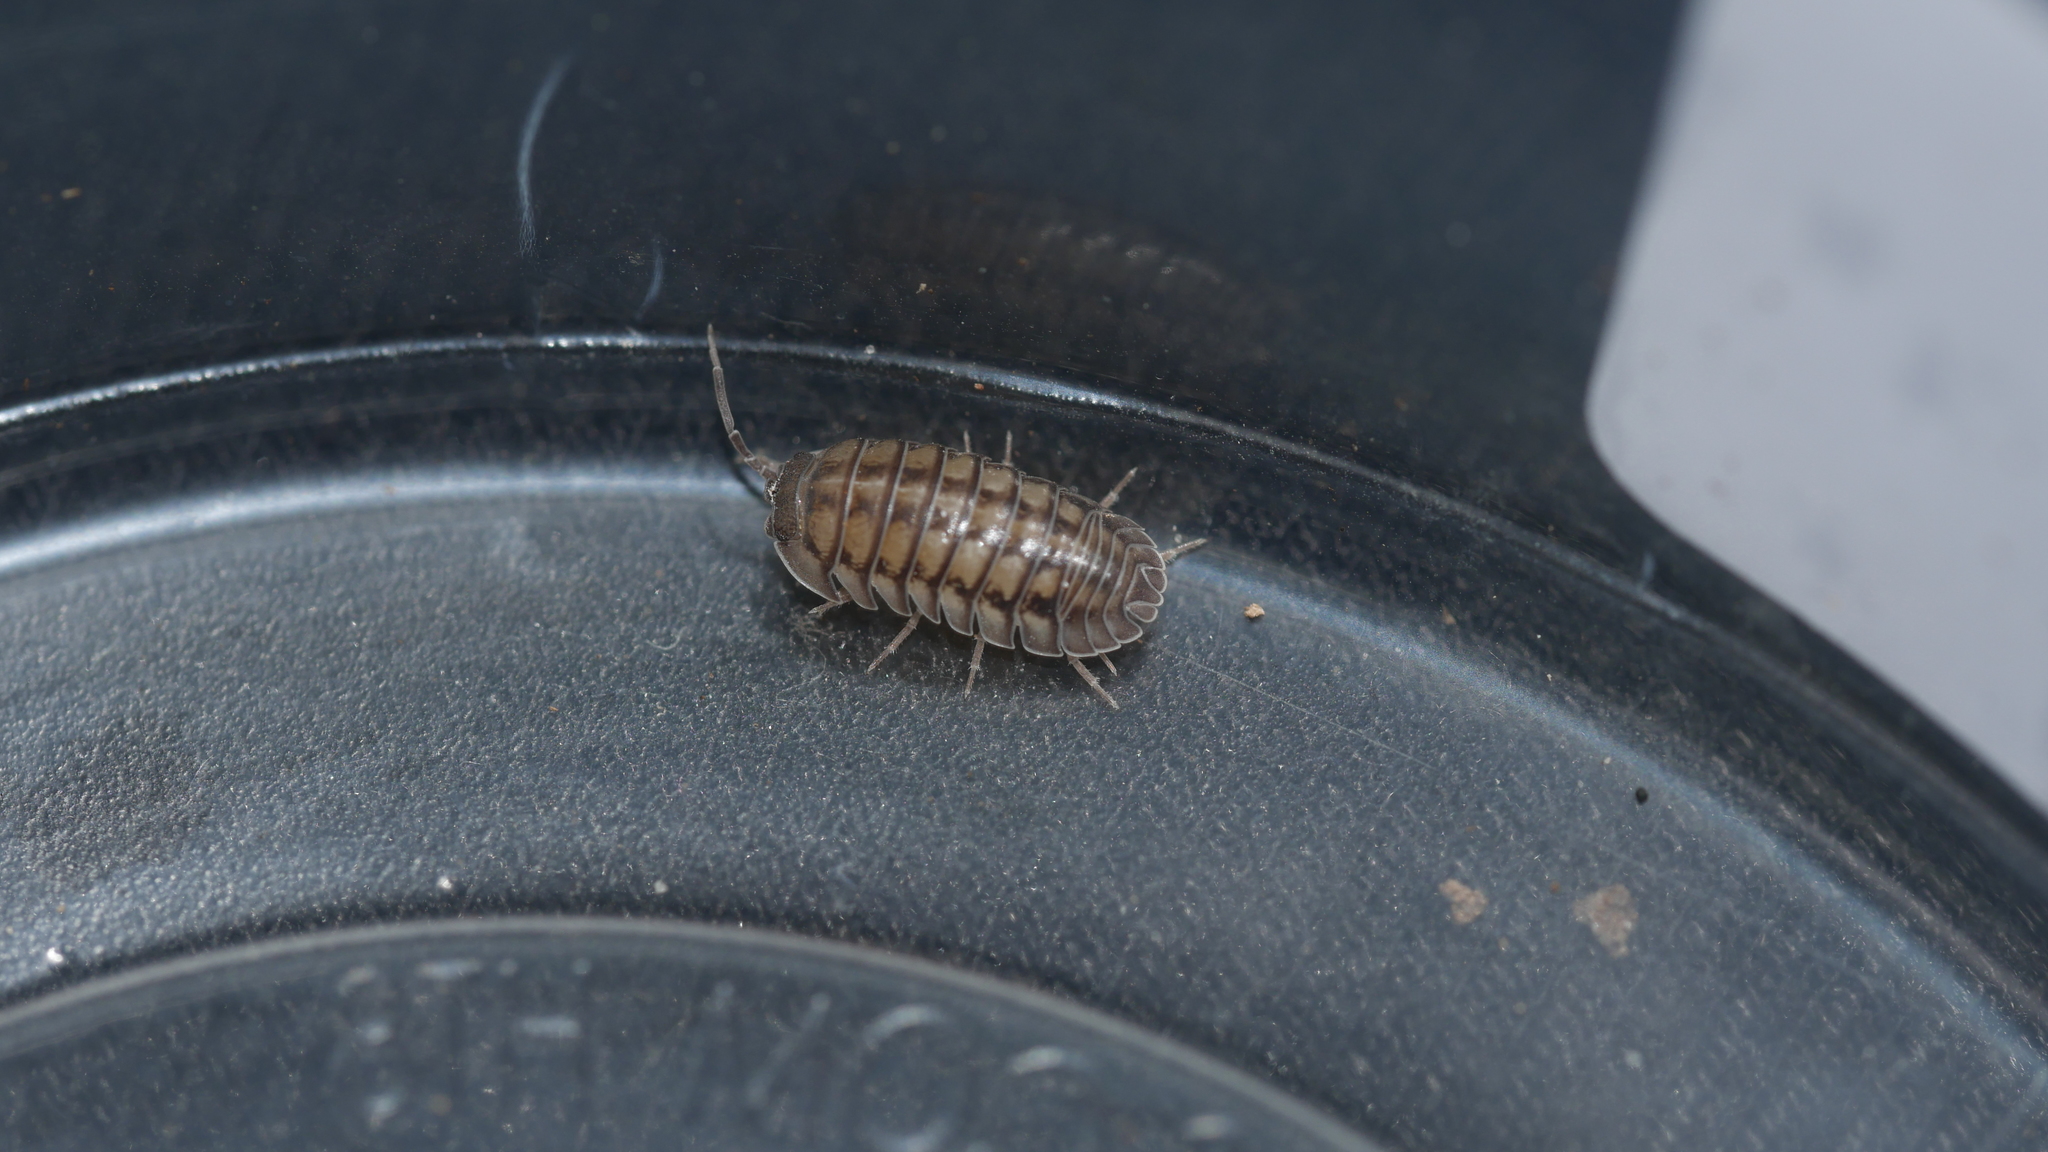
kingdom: Animalia
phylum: Arthropoda
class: Malacostraca
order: Isopoda
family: Armadillidiidae
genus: Armadillidium
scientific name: Armadillidium nasatum
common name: Isopod
